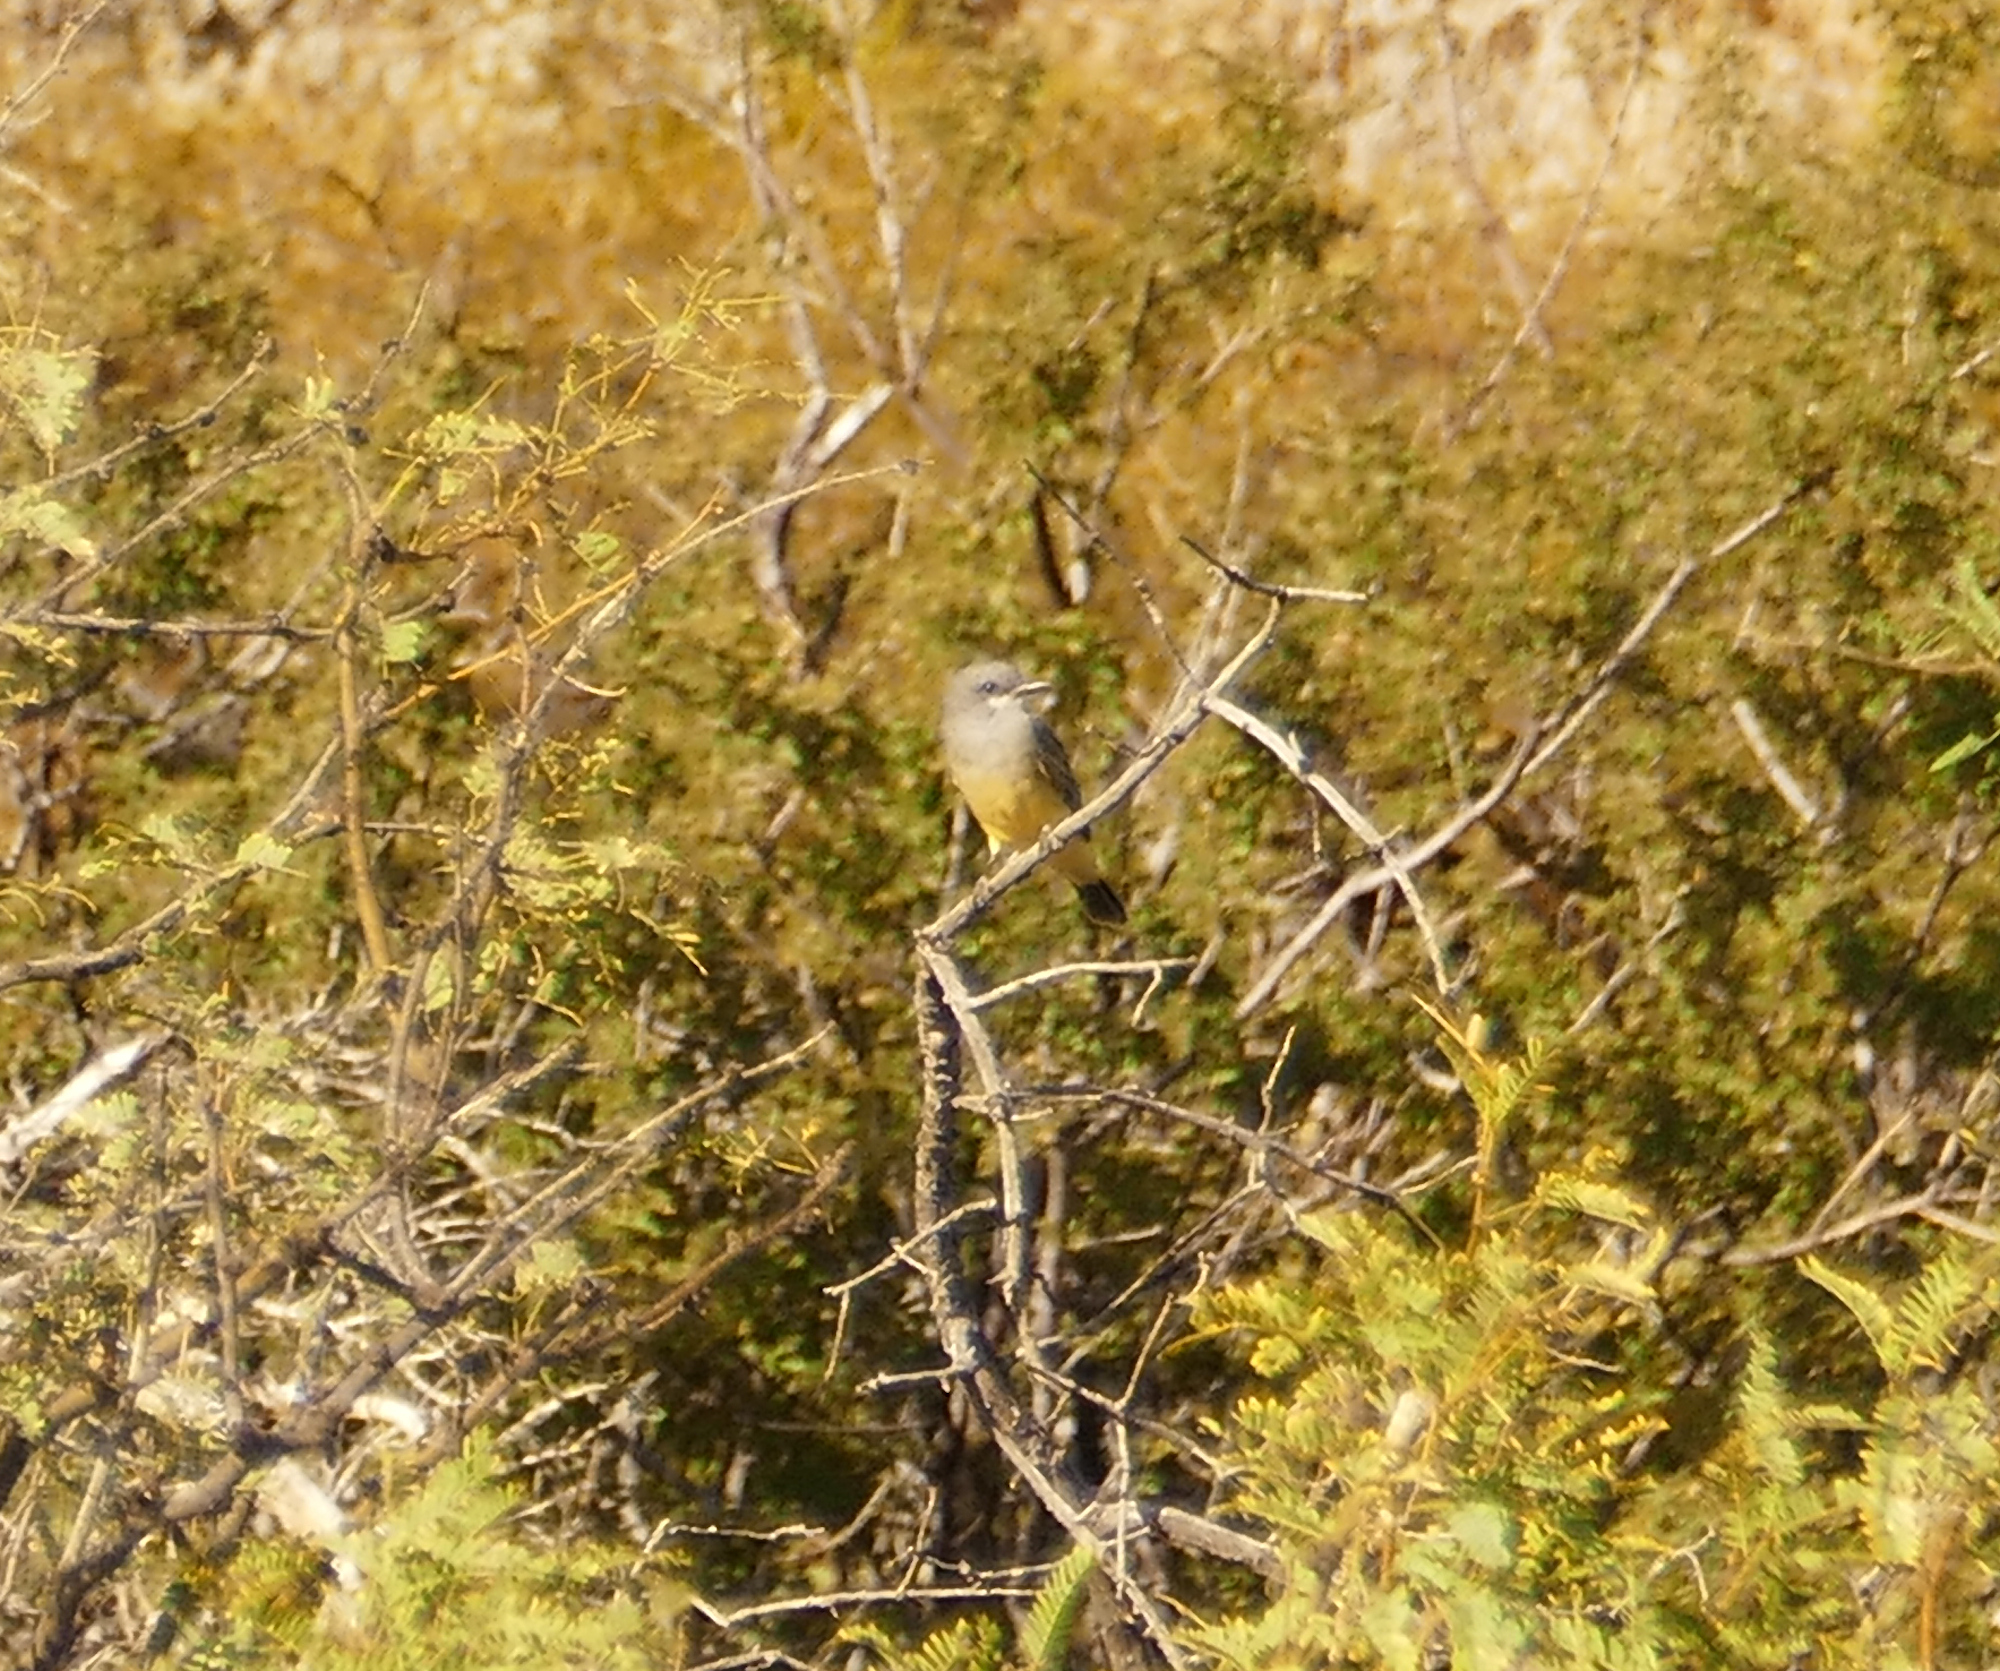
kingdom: Animalia
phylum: Chordata
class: Aves
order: Passeriformes
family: Tyrannidae
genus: Tyrannus
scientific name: Tyrannus vociferans
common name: Cassin's kingbird
